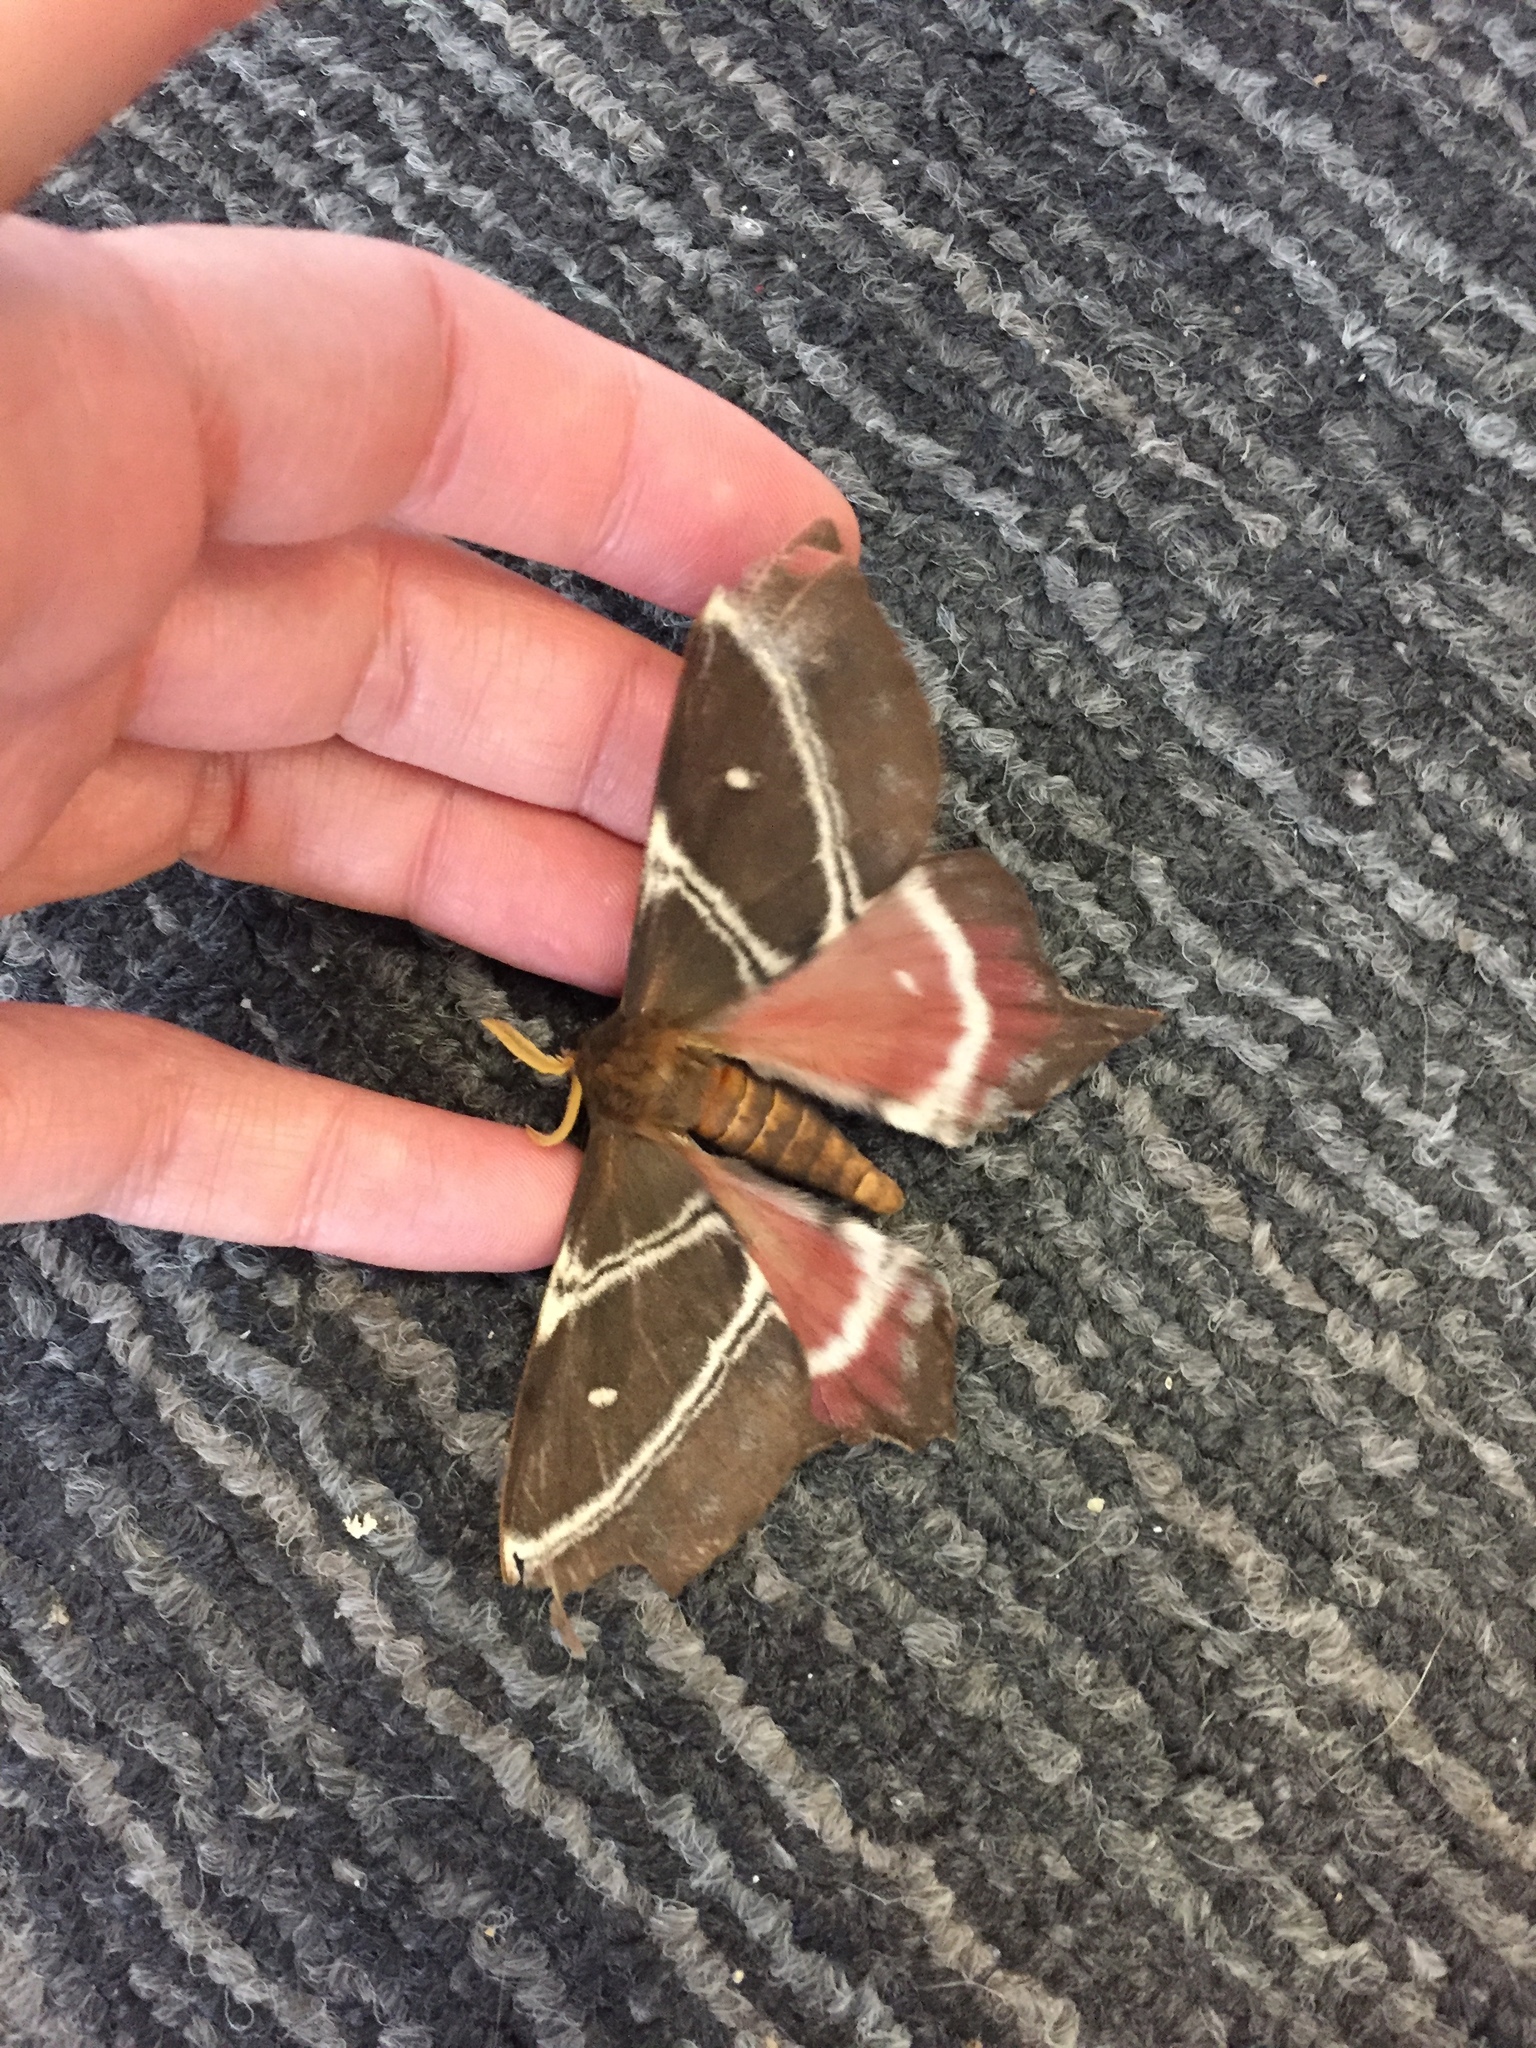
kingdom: Animalia
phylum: Arthropoda
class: Insecta
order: Lepidoptera
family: Saturniidae
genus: Urota
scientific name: Urota sinope
